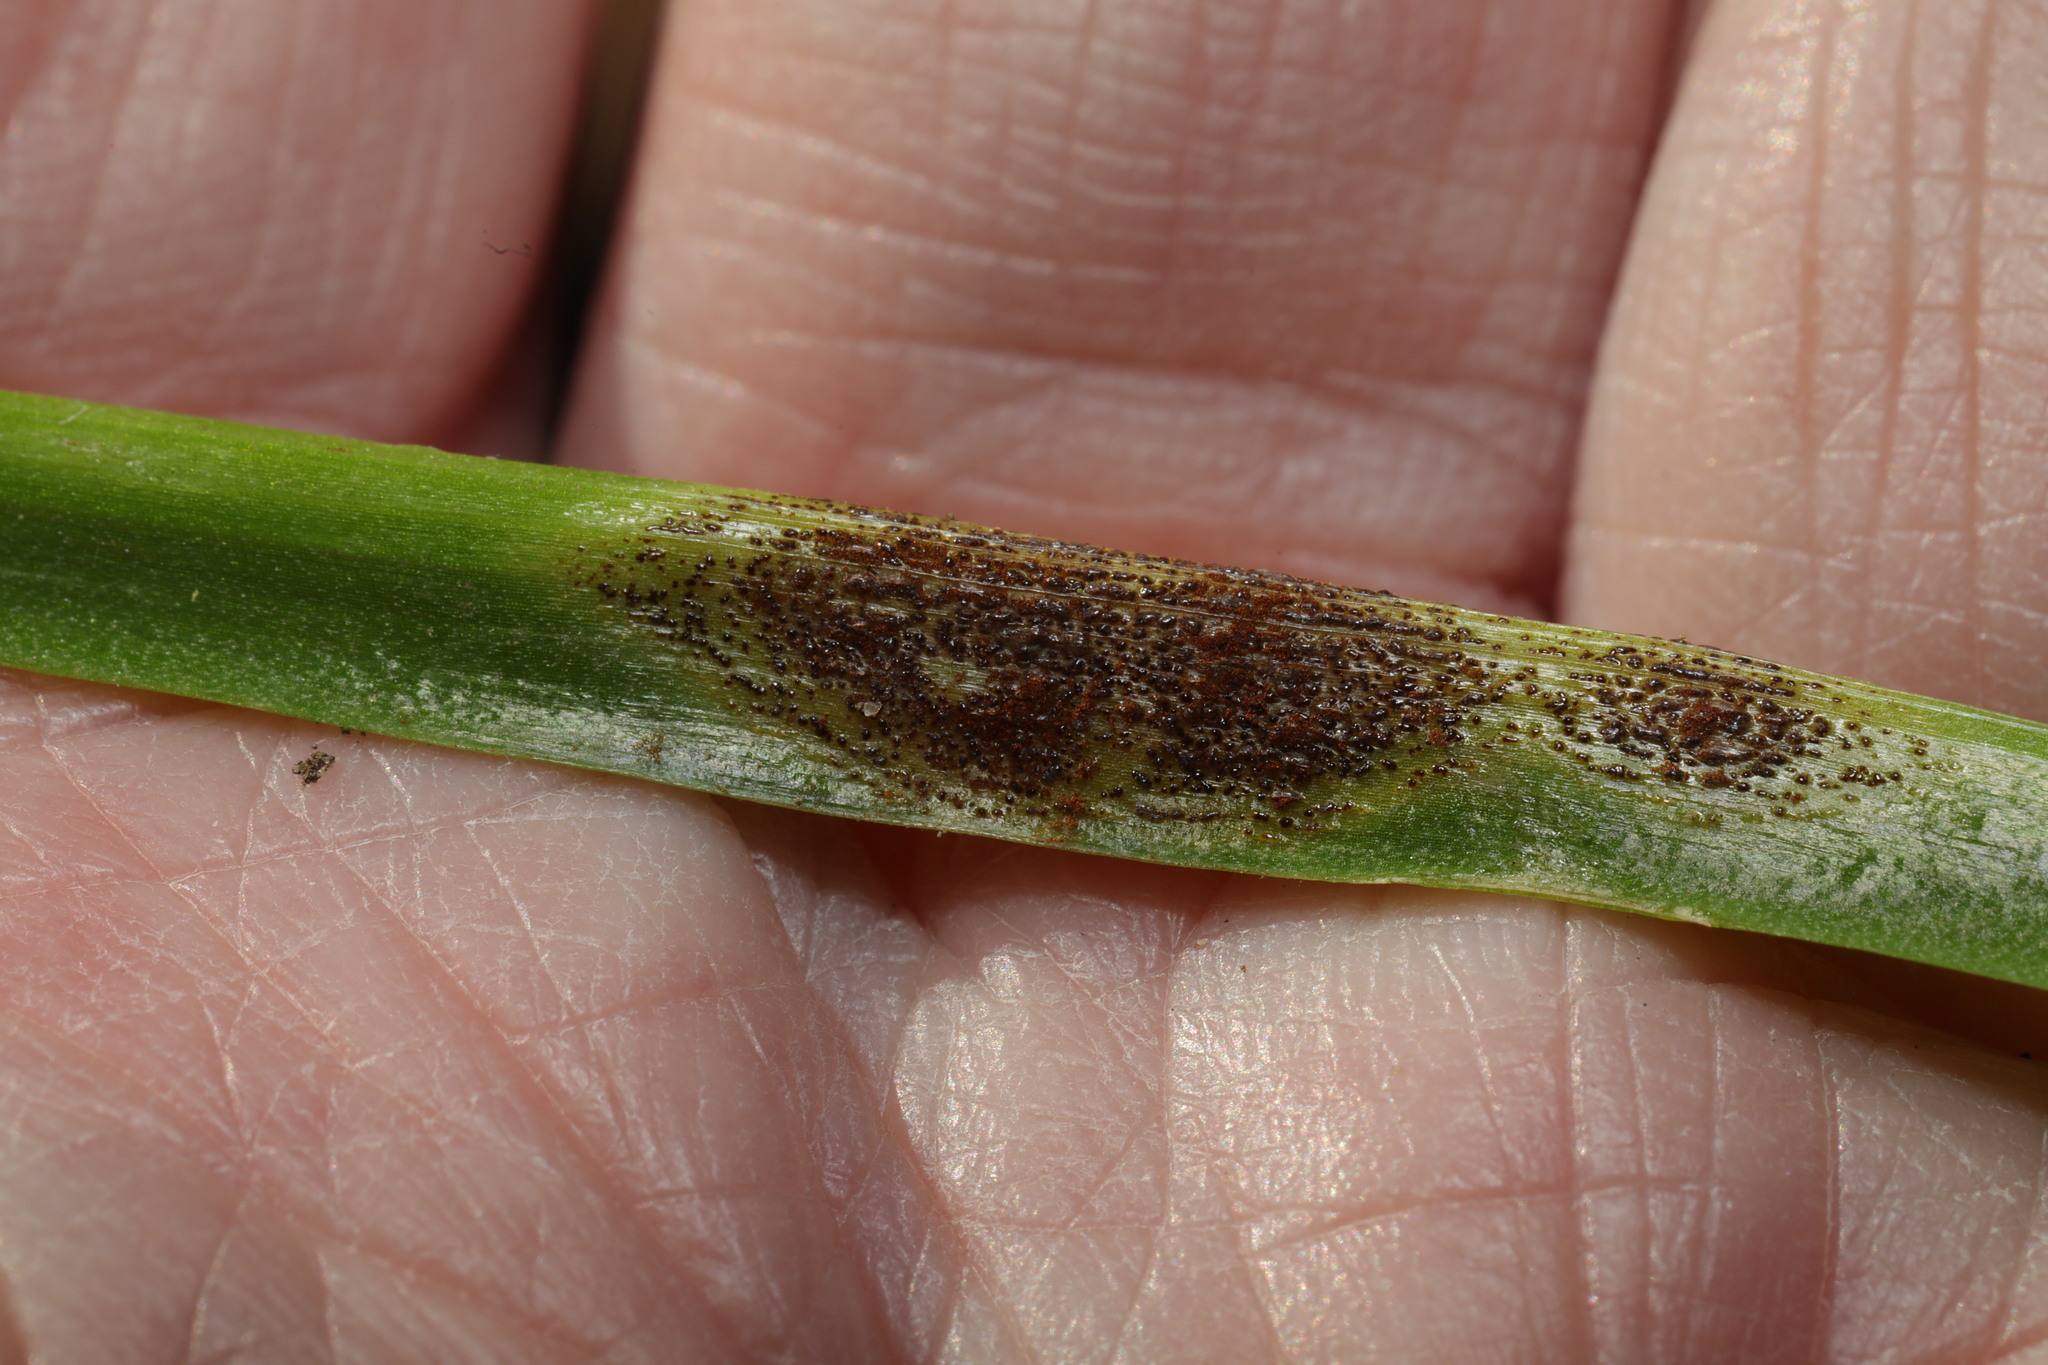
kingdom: Fungi
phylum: Basidiomycota
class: Pucciniomycetes
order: Pucciniales
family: Pucciniaceae
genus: Uromyces
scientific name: Uromyces hyacinthi
